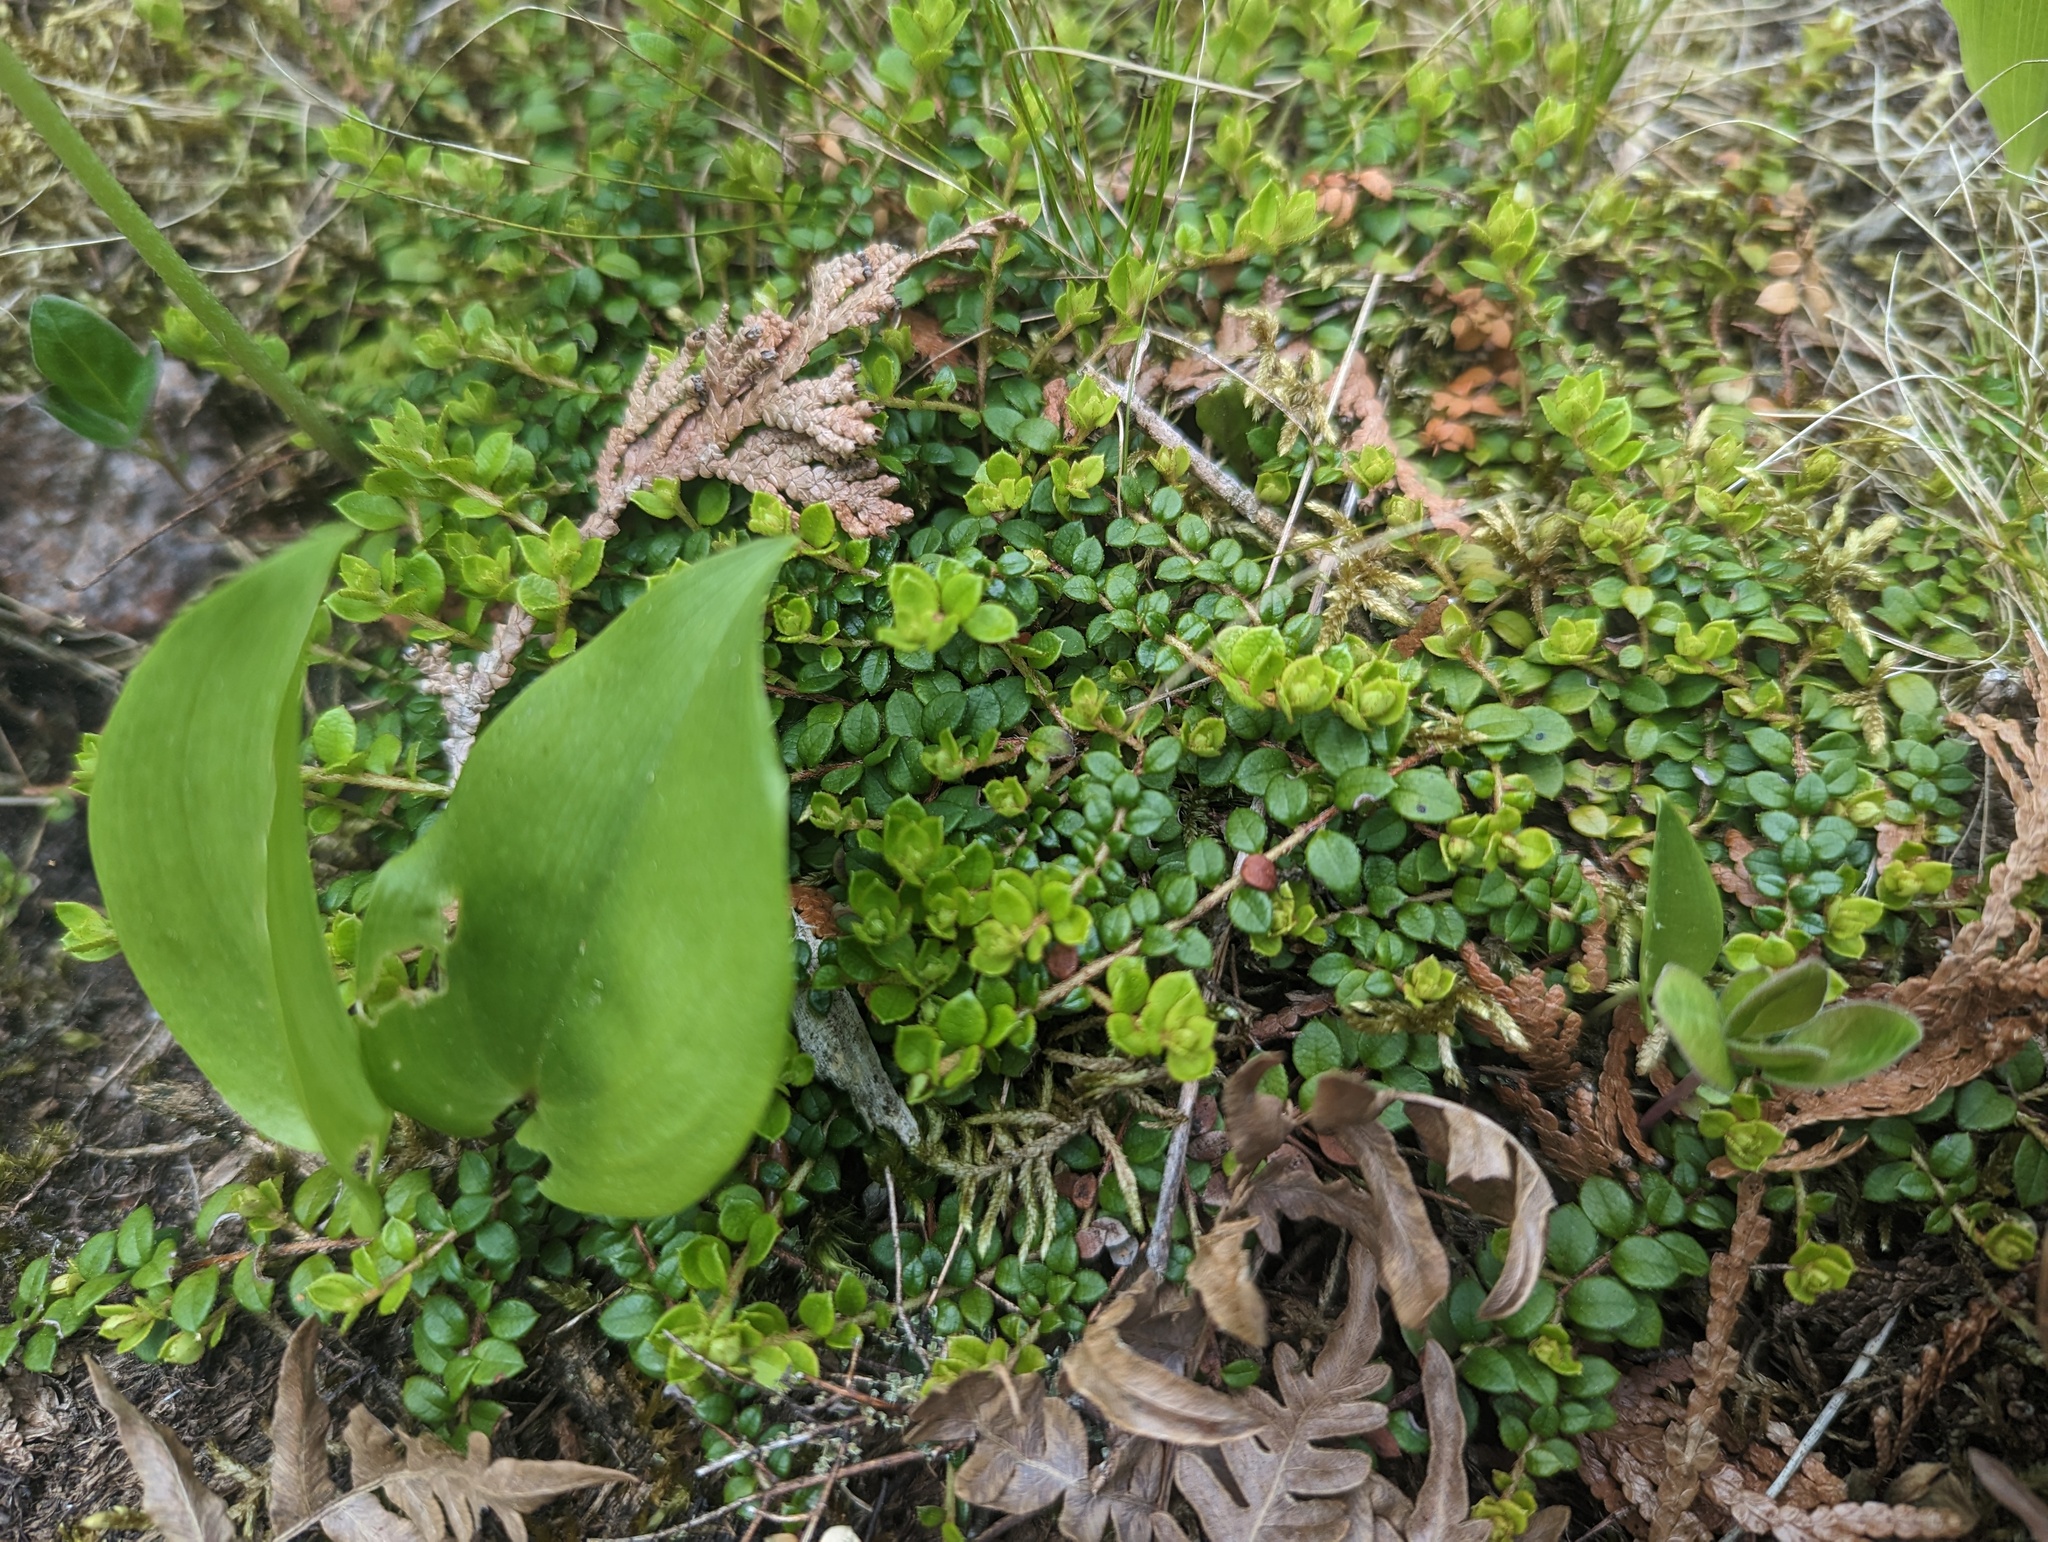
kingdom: Plantae
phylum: Tracheophyta
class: Magnoliopsida
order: Ericales
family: Ericaceae
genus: Gaultheria
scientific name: Gaultheria hispidula
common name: Cancer wintergreen
